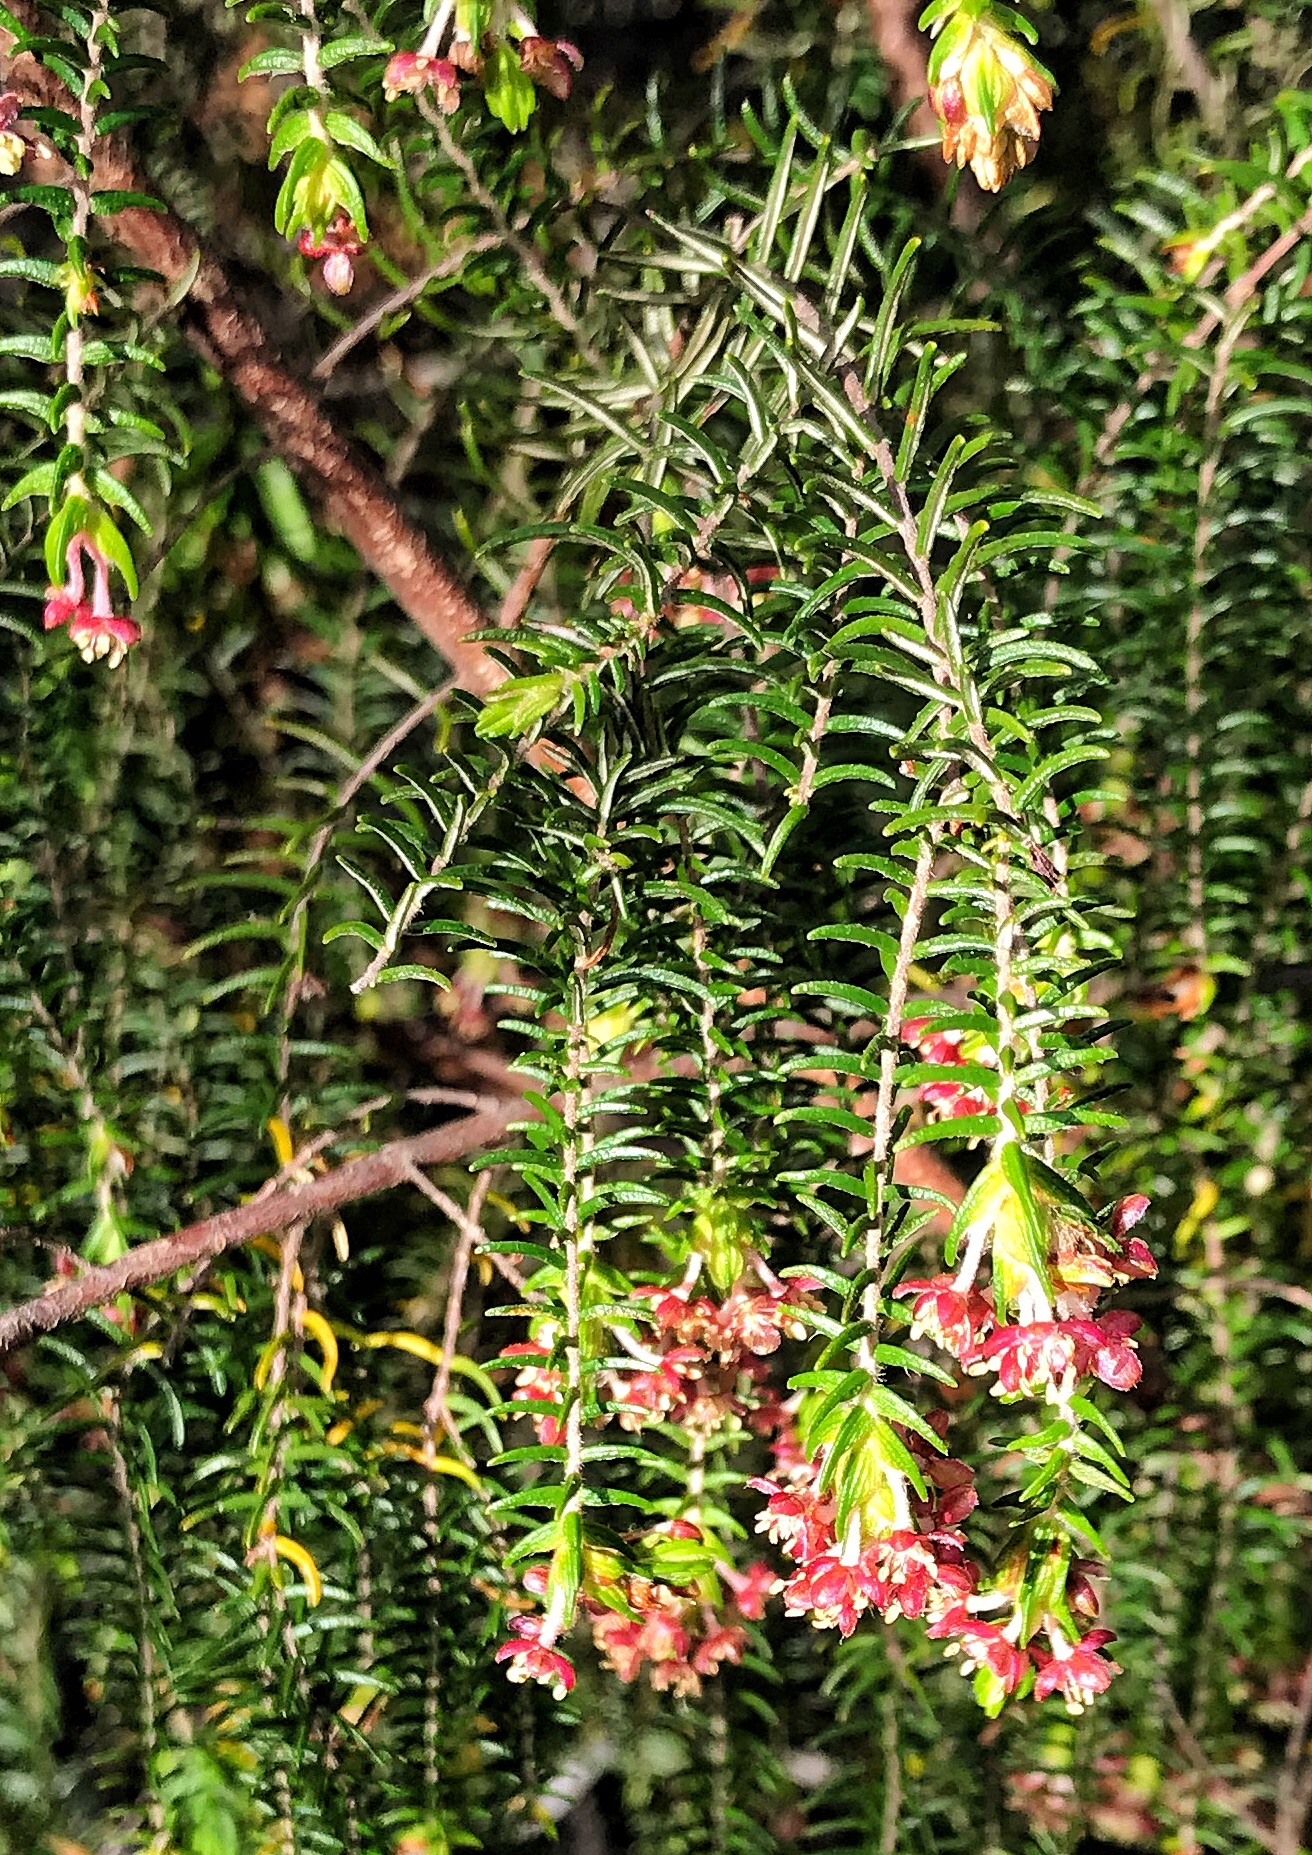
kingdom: Plantae
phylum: Tracheophyta
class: Magnoliopsida
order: Malvales
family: Thymelaeaceae
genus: Passerina
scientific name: Passerina falcifolia
